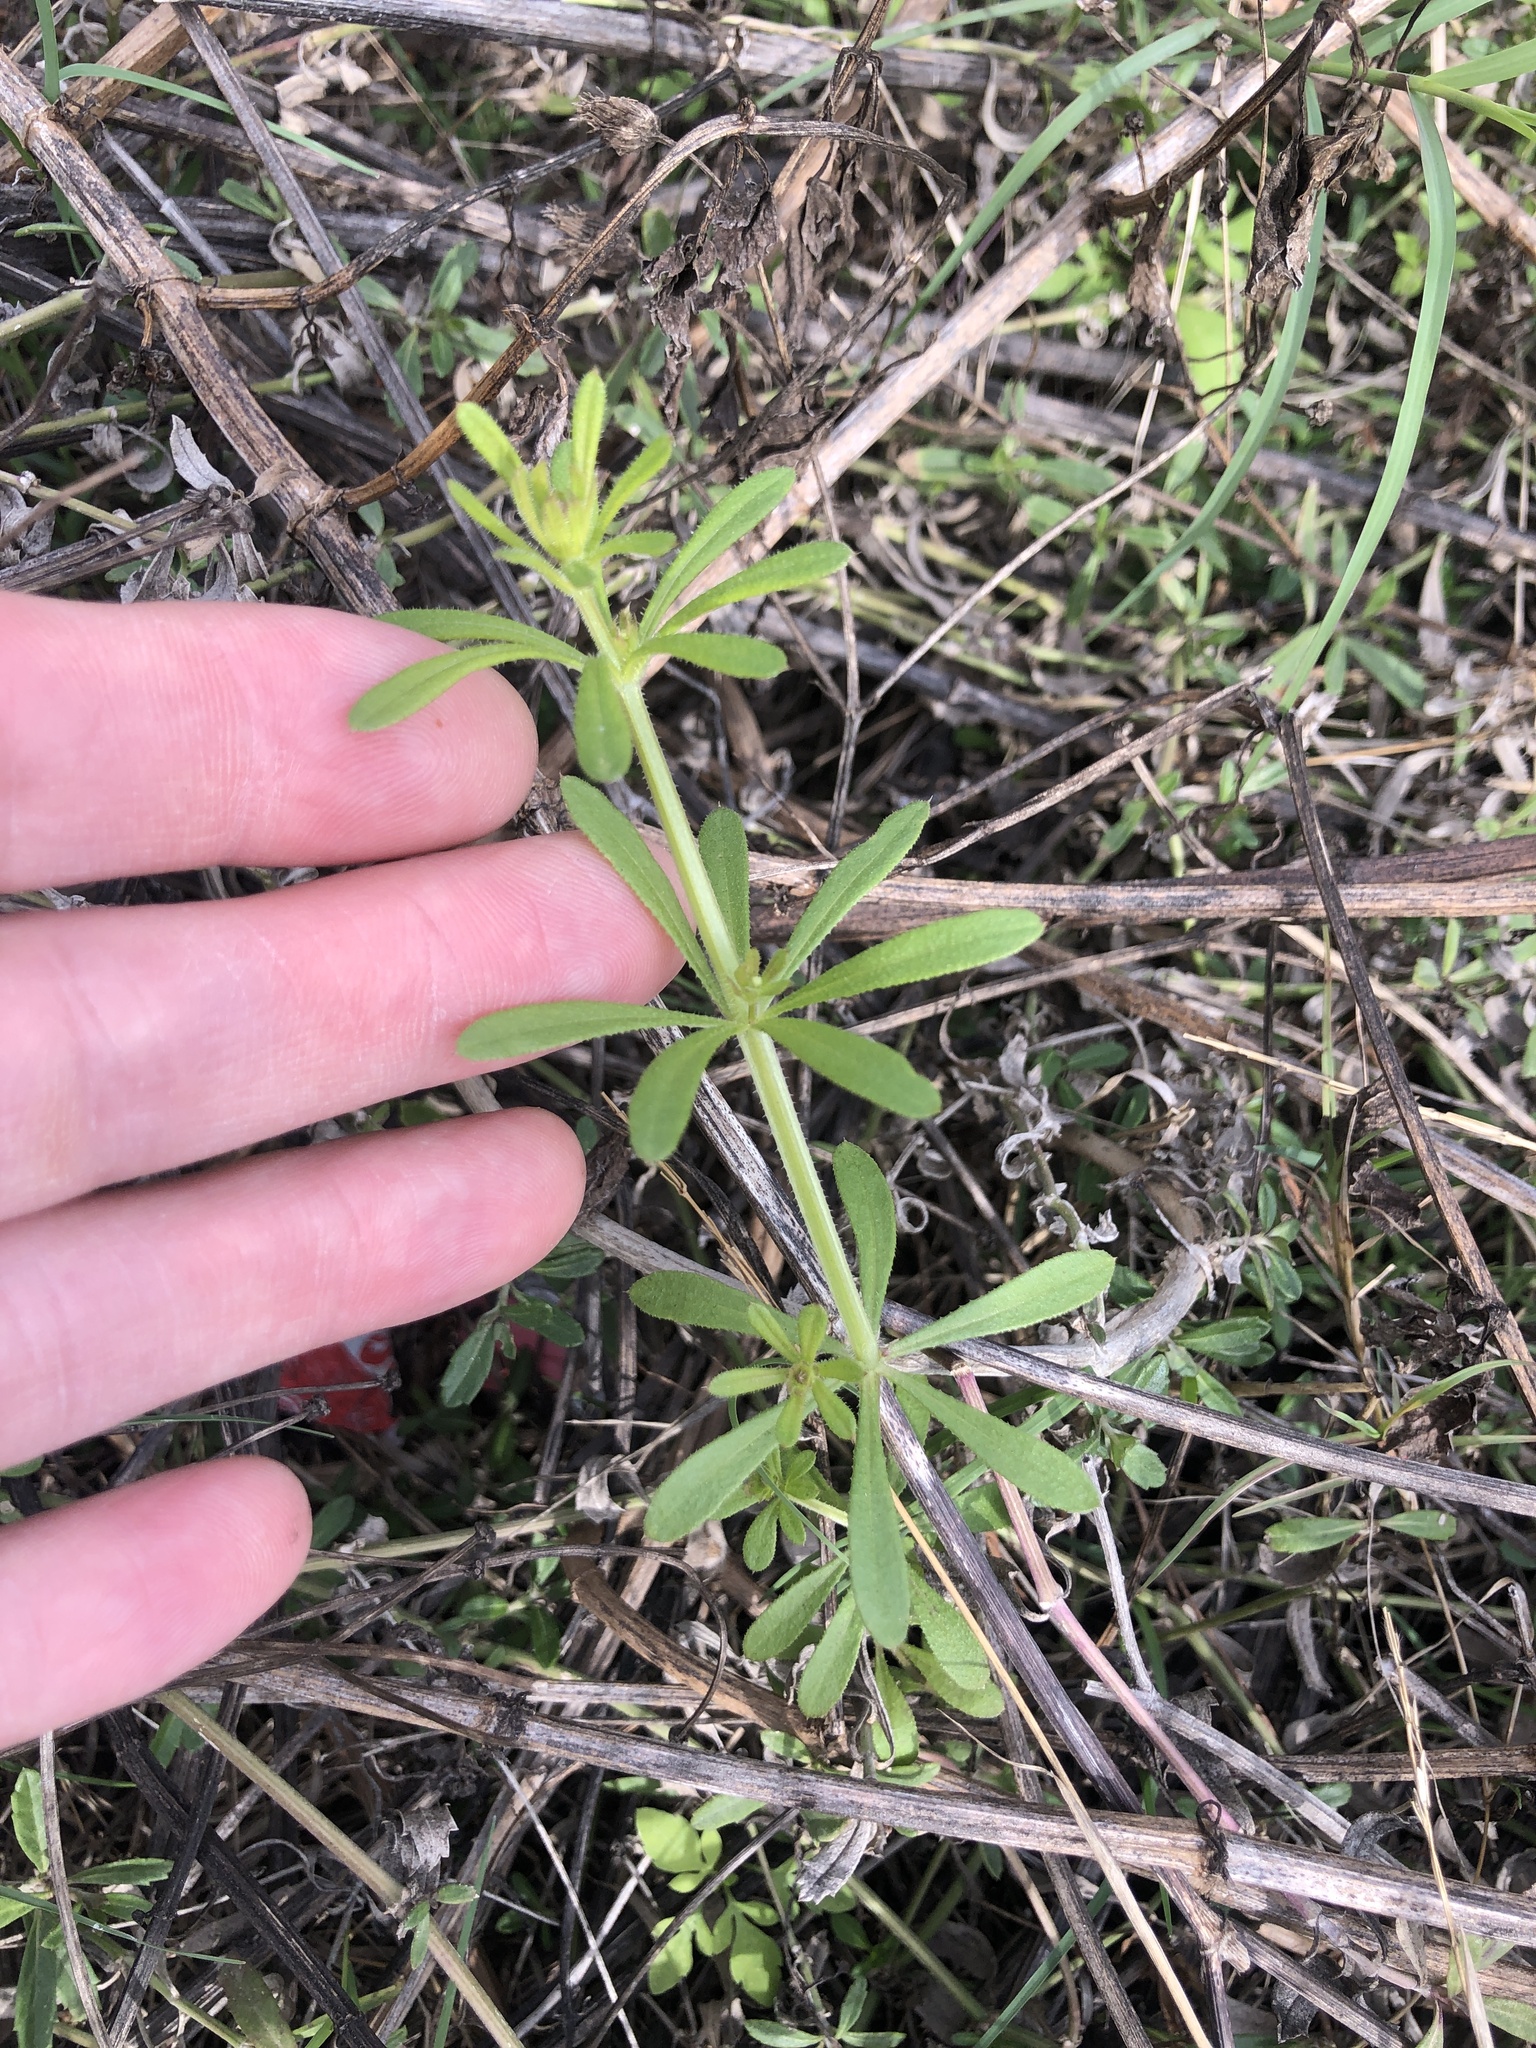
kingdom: Plantae
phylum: Tracheophyta
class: Magnoliopsida
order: Gentianales
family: Rubiaceae
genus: Galium
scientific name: Galium aparine
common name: Cleavers
